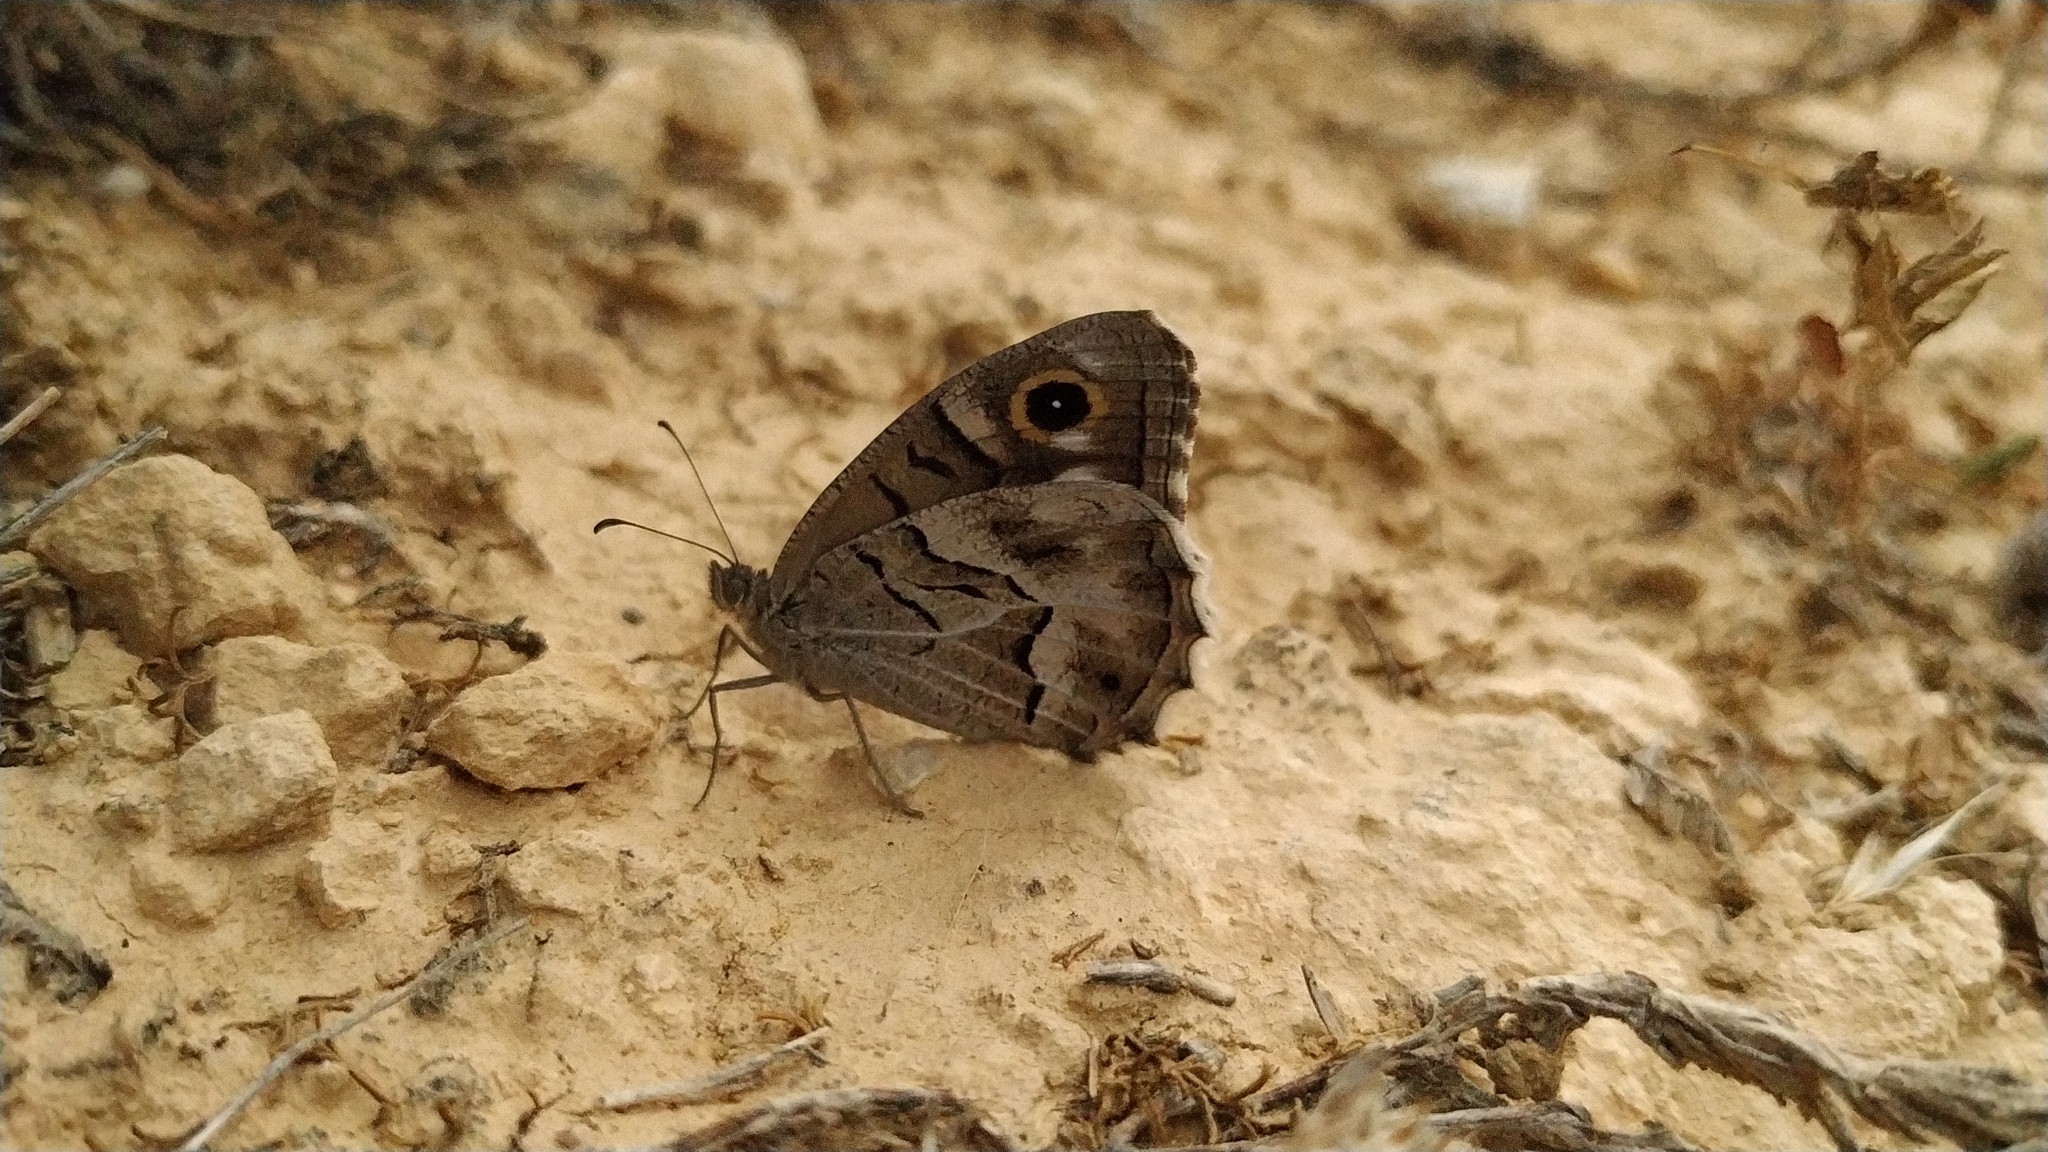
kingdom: Animalia
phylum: Arthropoda
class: Insecta
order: Lepidoptera
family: Nymphalidae
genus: Hipparchia
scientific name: Hipparchia fidia
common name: Striped grayling
